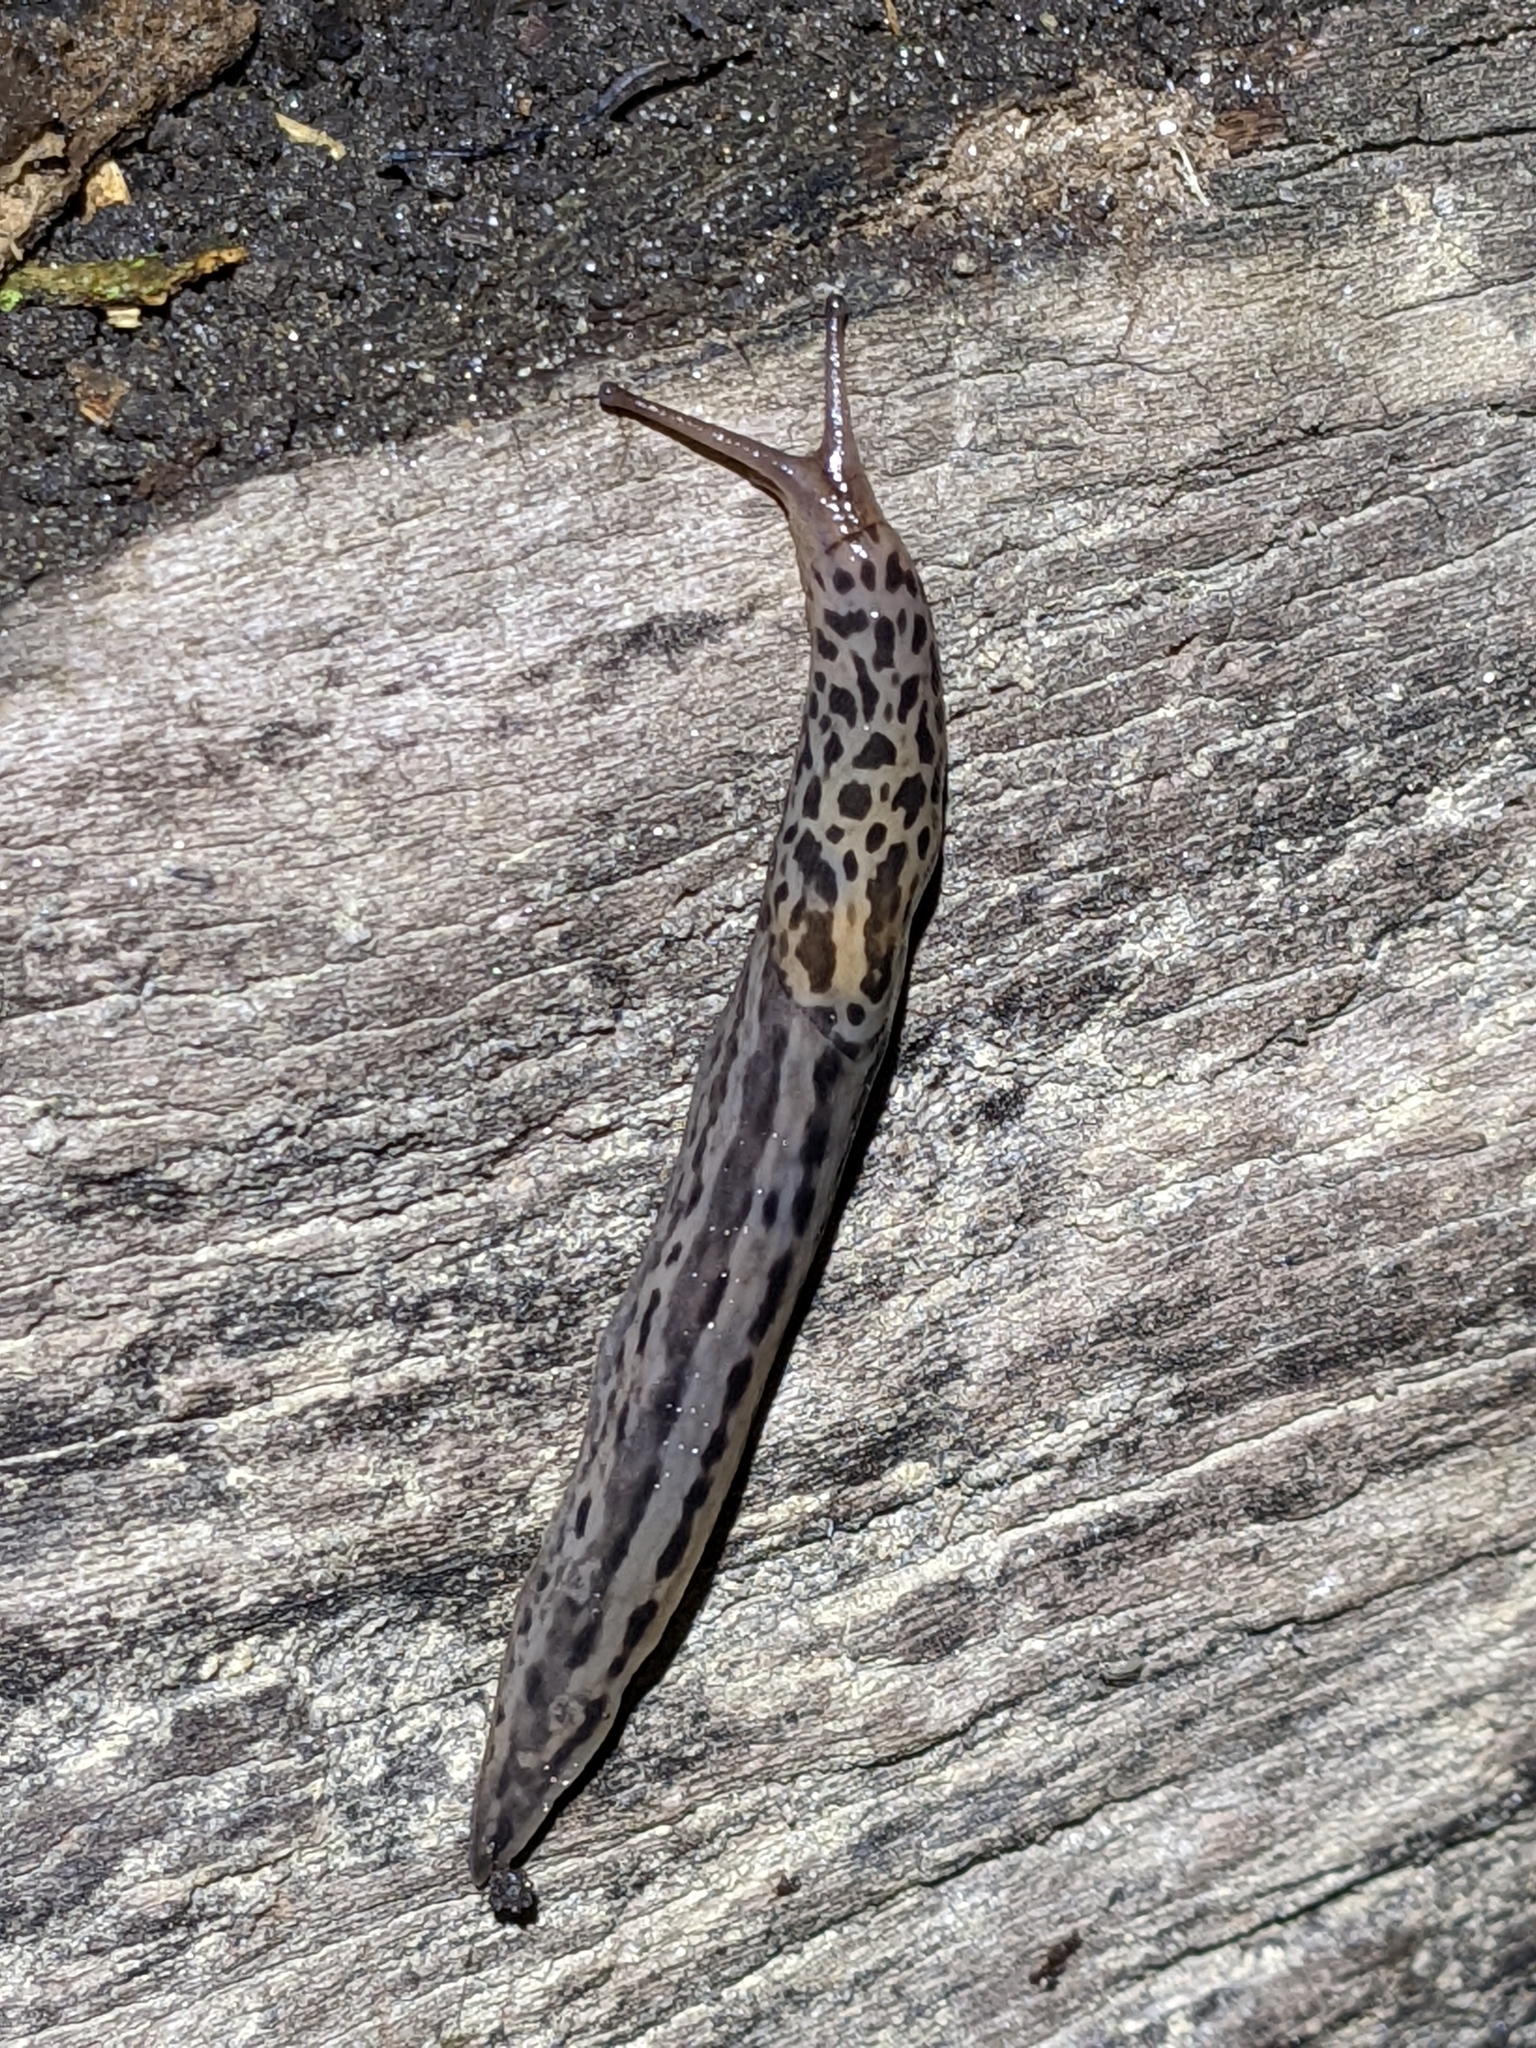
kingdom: Animalia
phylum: Mollusca
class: Gastropoda
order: Stylommatophora
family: Limacidae
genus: Limax
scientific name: Limax maximus
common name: Great grey slug
